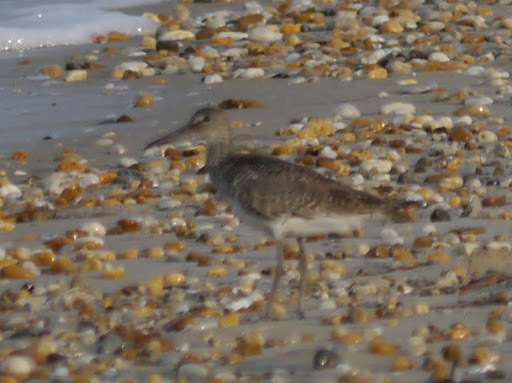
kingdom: Animalia
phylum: Chordata
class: Aves
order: Charadriiformes
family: Scolopacidae
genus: Tringa
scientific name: Tringa semipalmata
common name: Willet
